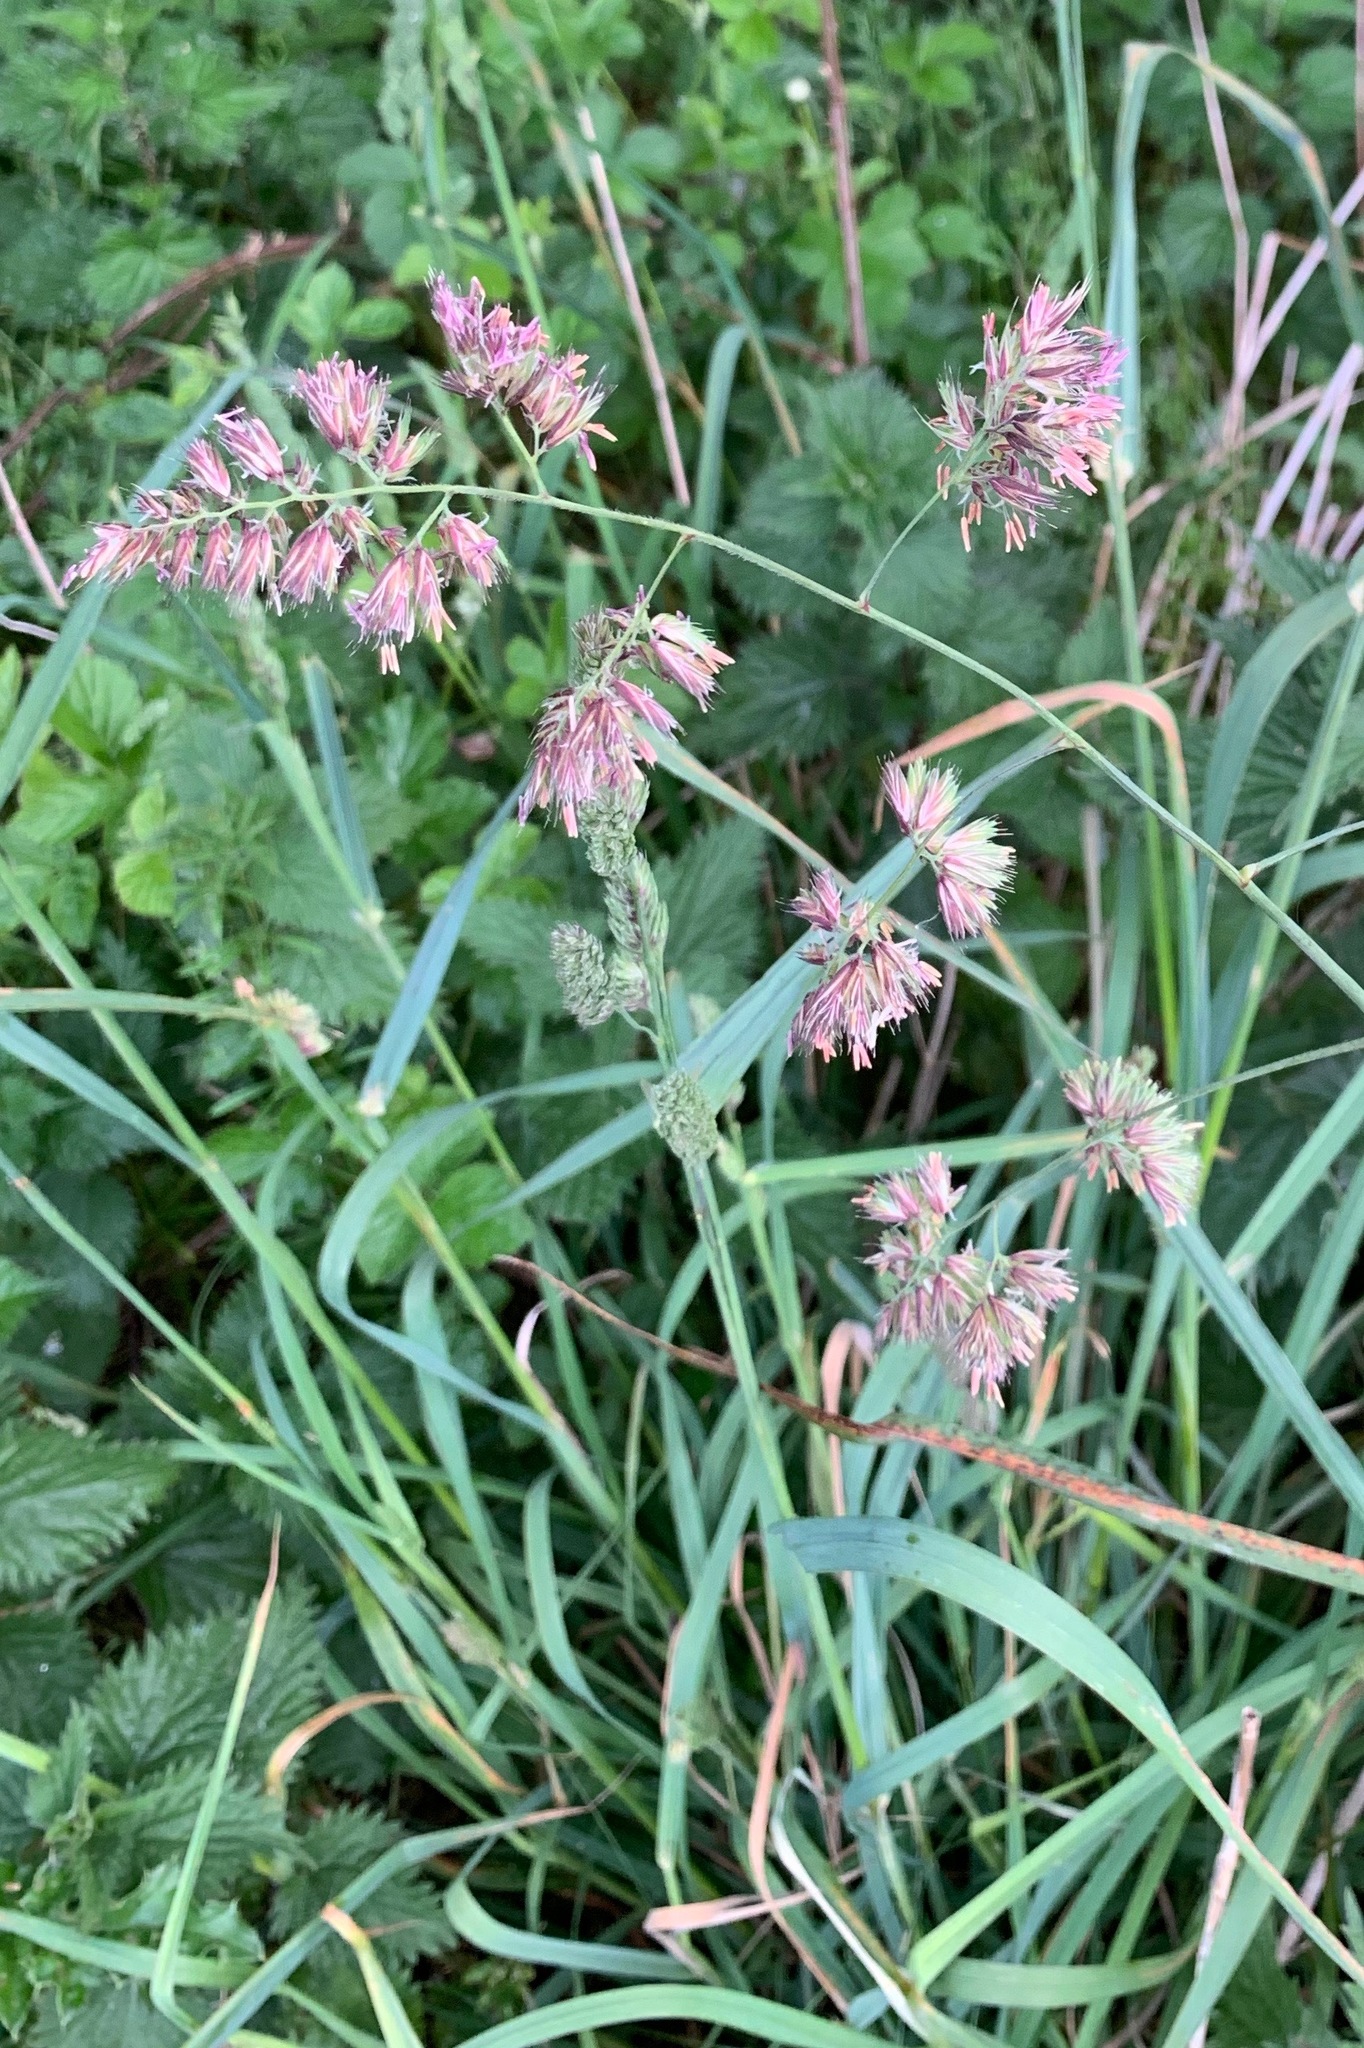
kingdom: Plantae
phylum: Tracheophyta
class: Liliopsida
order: Poales
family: Poaceae
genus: Dactylis
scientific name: Dactylis glomerata
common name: Orchardgrass
